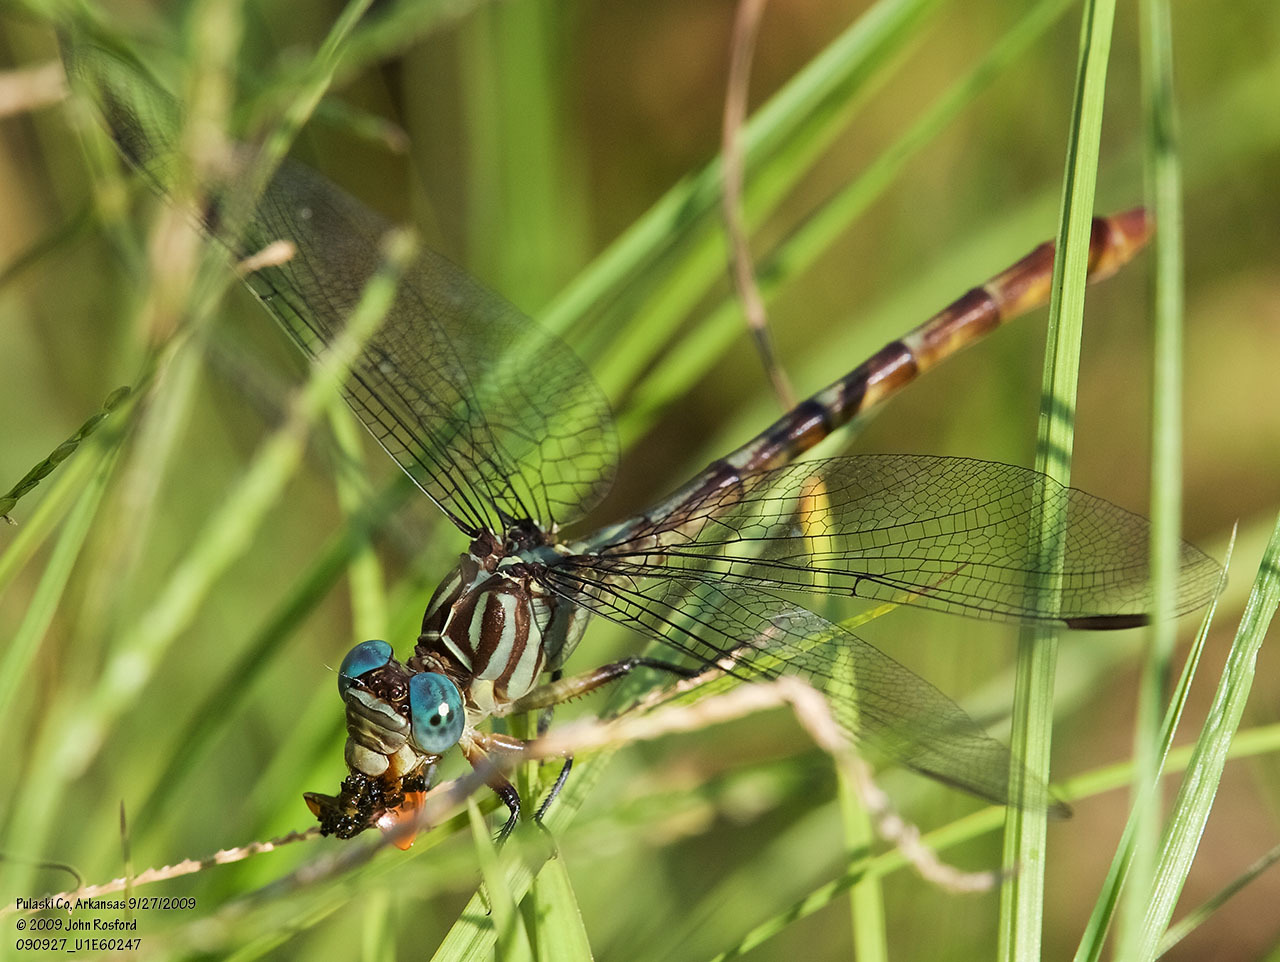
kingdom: Animalia
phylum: Arthropoda
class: Insecta
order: Odonata
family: Gomphidae
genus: Stylurus
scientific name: Stylurus plagiatus
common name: Russet-tipped clubtail
